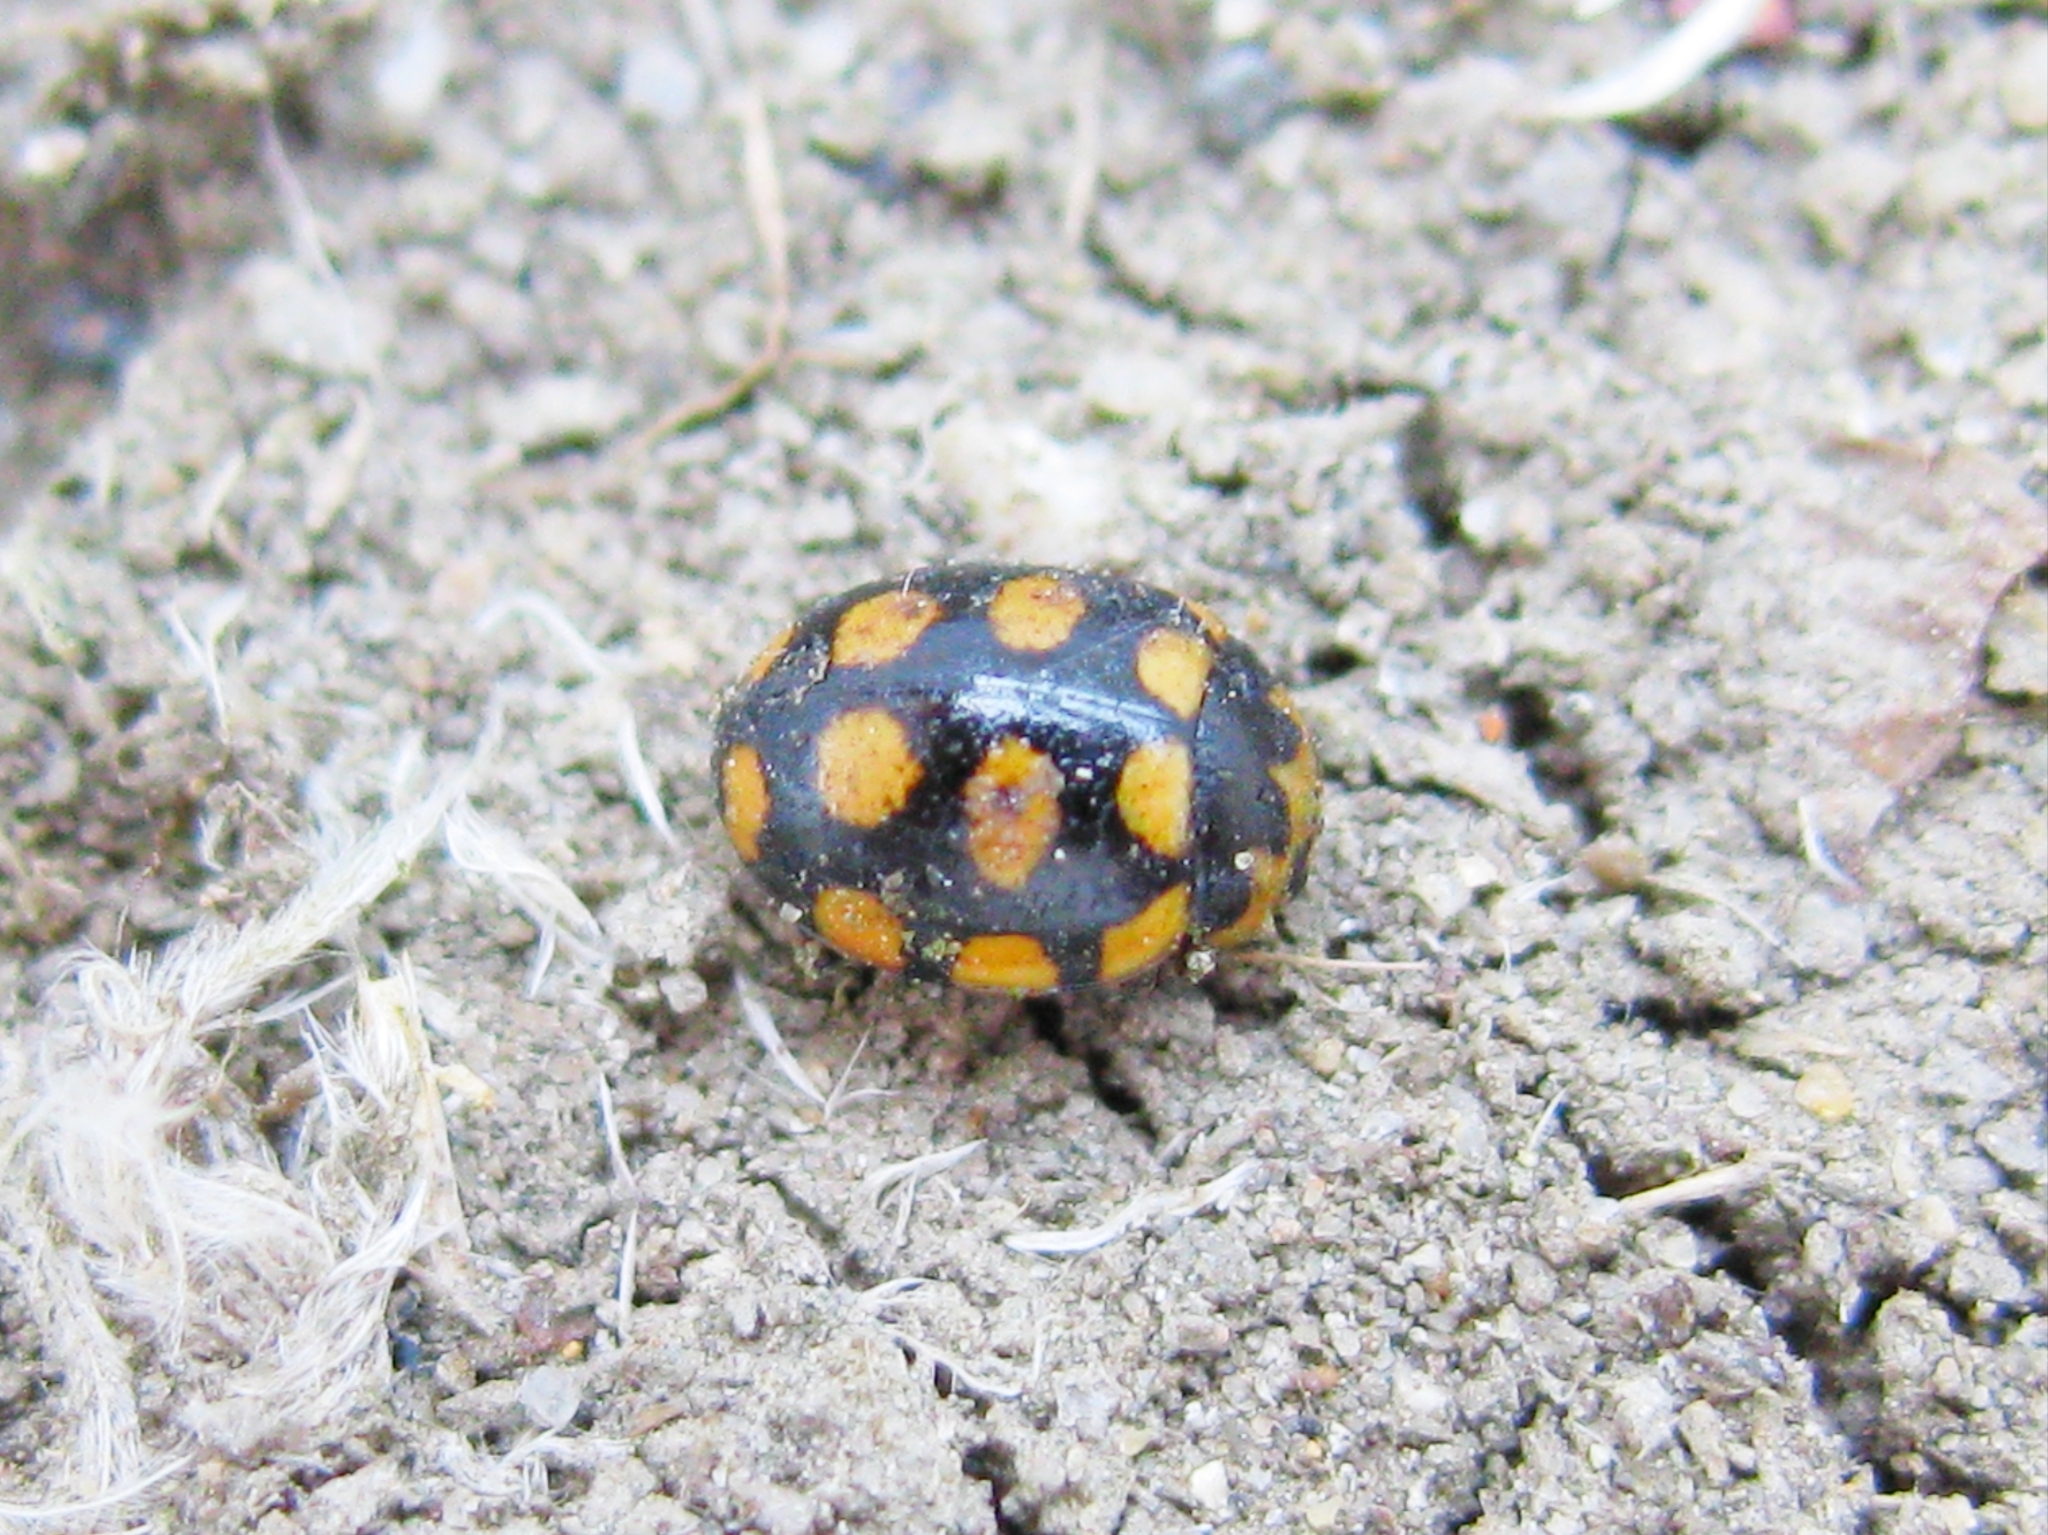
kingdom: Animalia
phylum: Arthropoda
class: Insecta
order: Coleoptera
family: Coccinellidae
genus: Coccinula
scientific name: Coccinula quatuordecimpustulata
